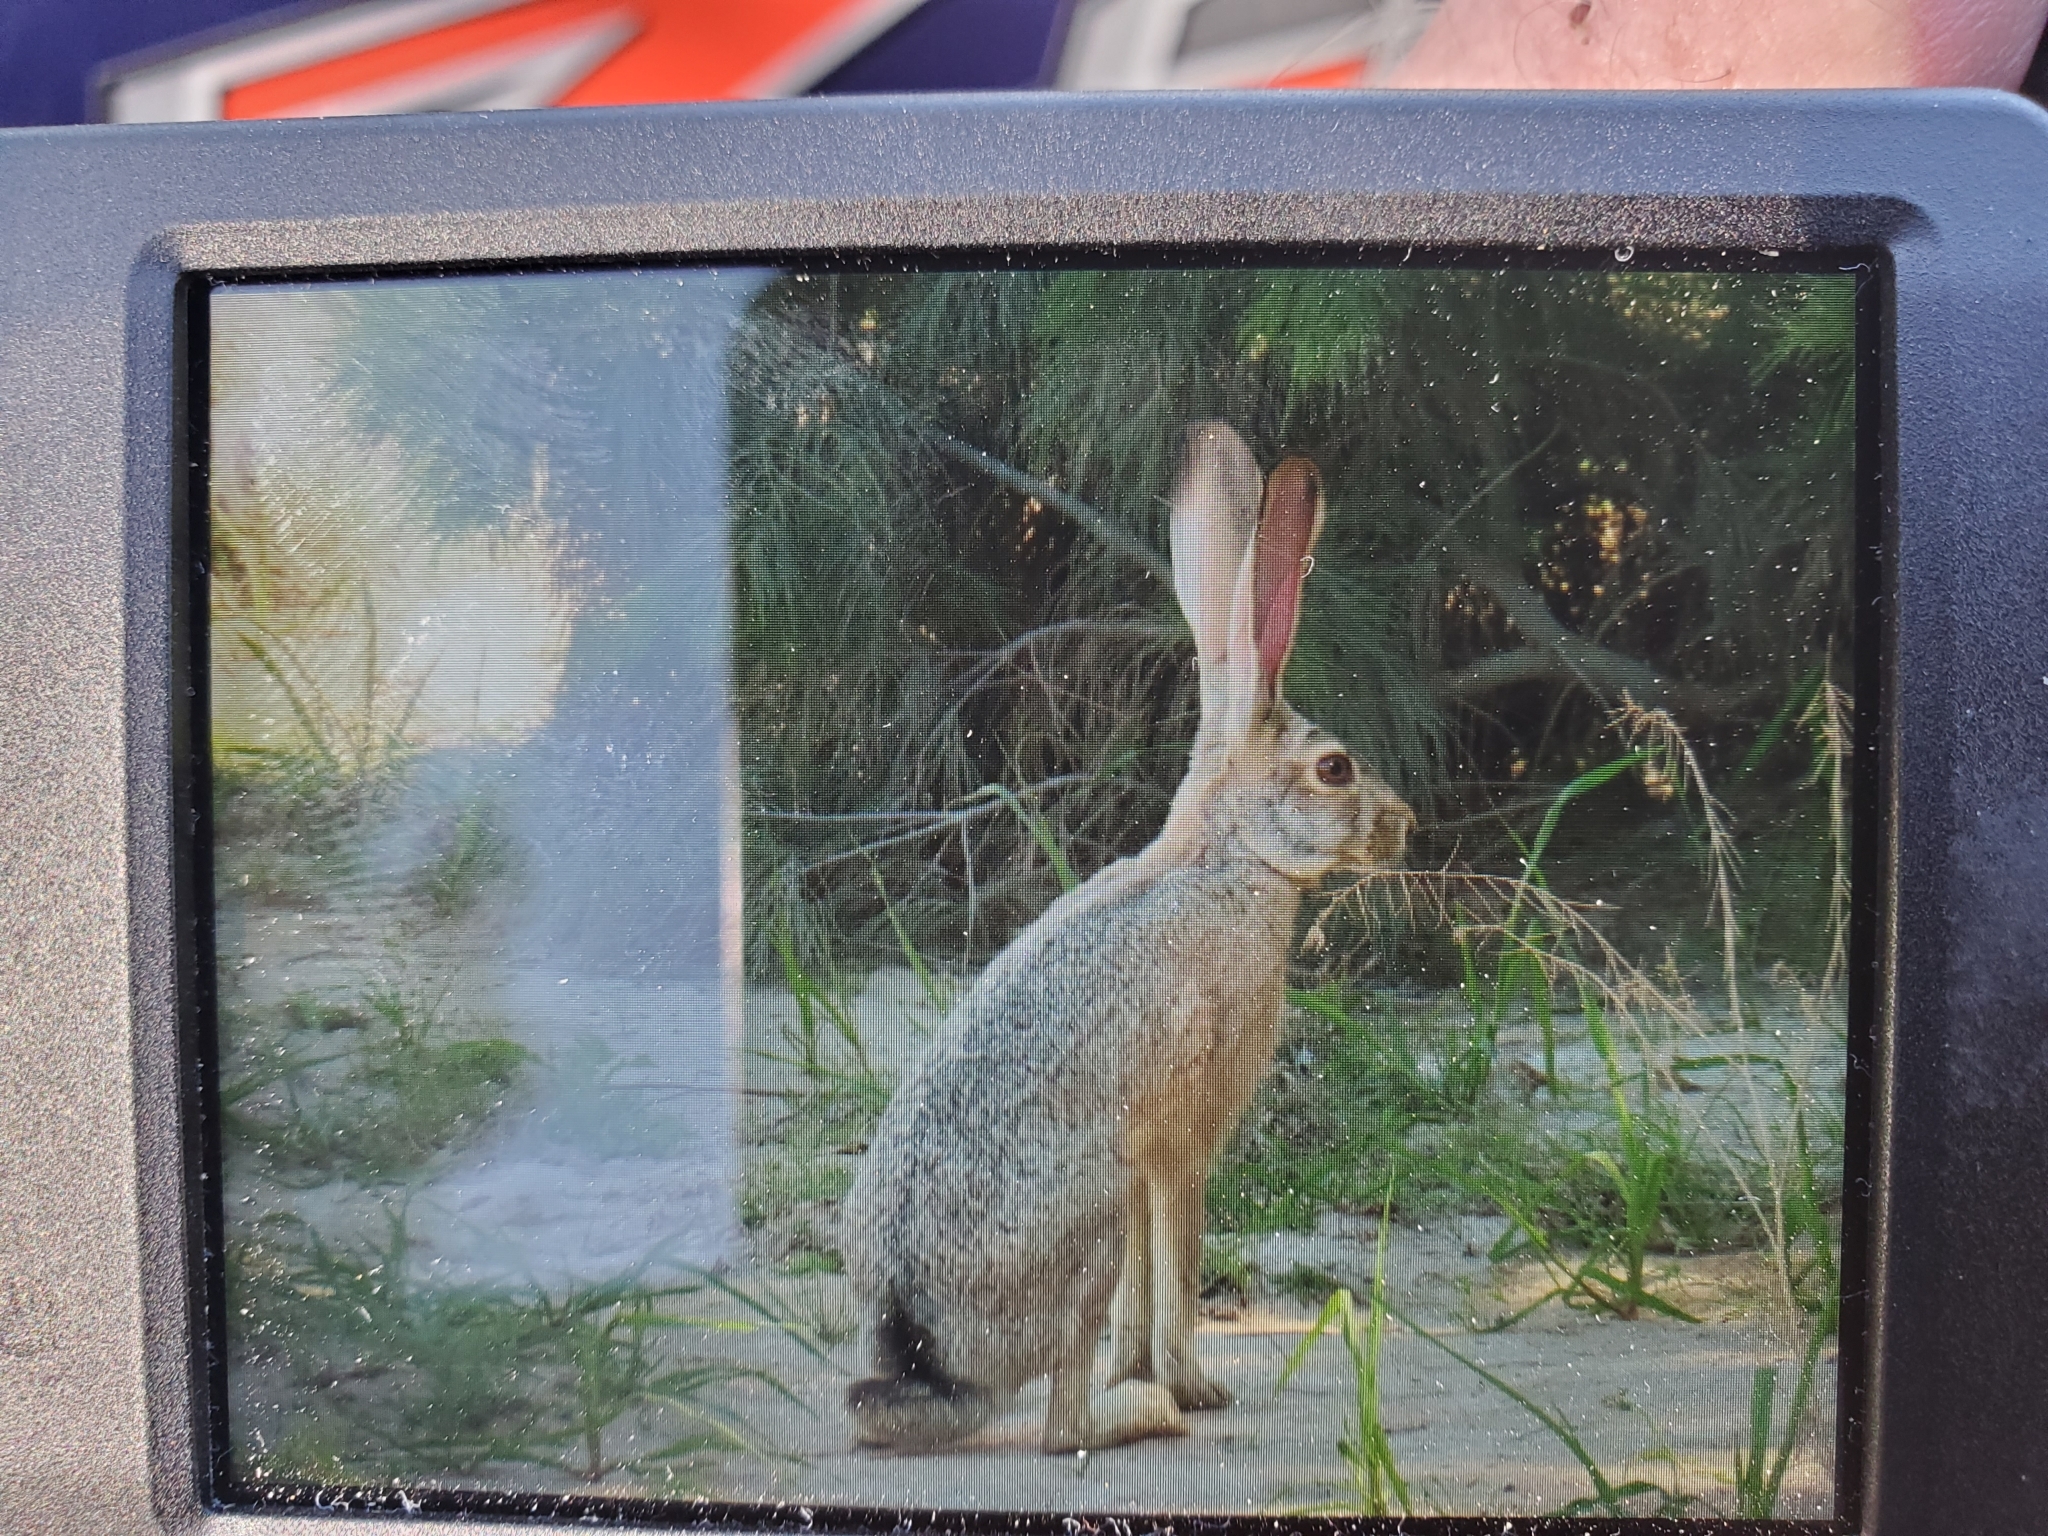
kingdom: Animalia
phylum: Chordata
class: Mammalia
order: Lagomorpha
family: Leporidae
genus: Lepus
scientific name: Lepus californicus
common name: Black-tailed jackrabbit
